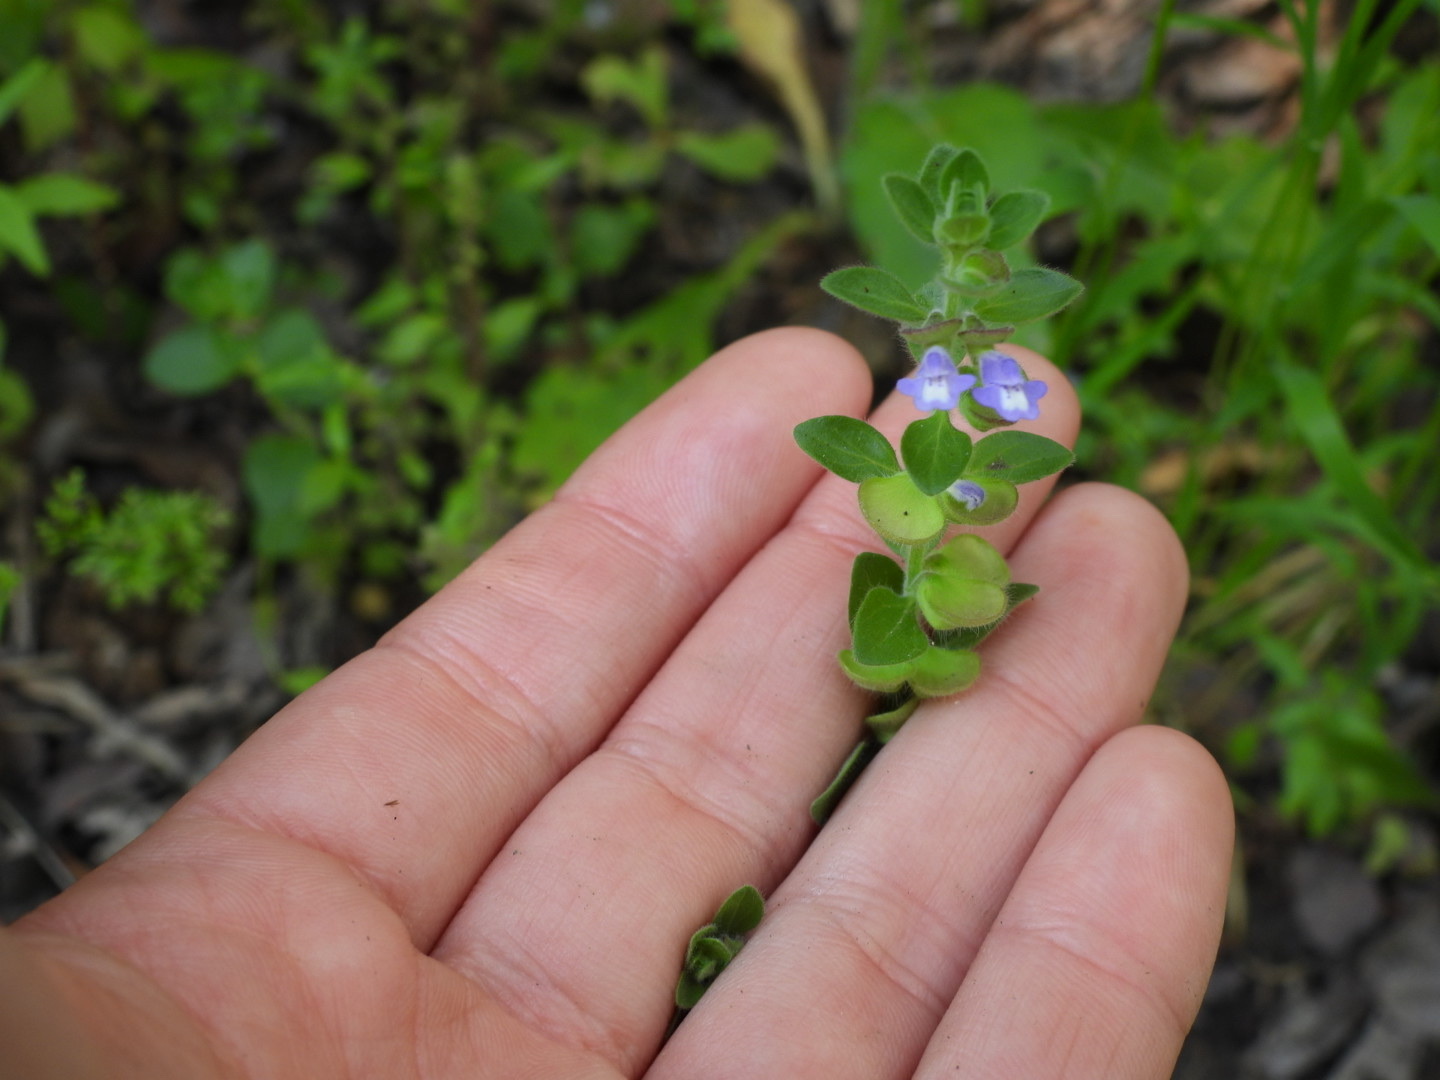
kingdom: Plantae
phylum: Tracheophyta
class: Magnoliopsida
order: Lamiales
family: Lamiaceae
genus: Scutellaria
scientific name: Scutellaria drummondii
